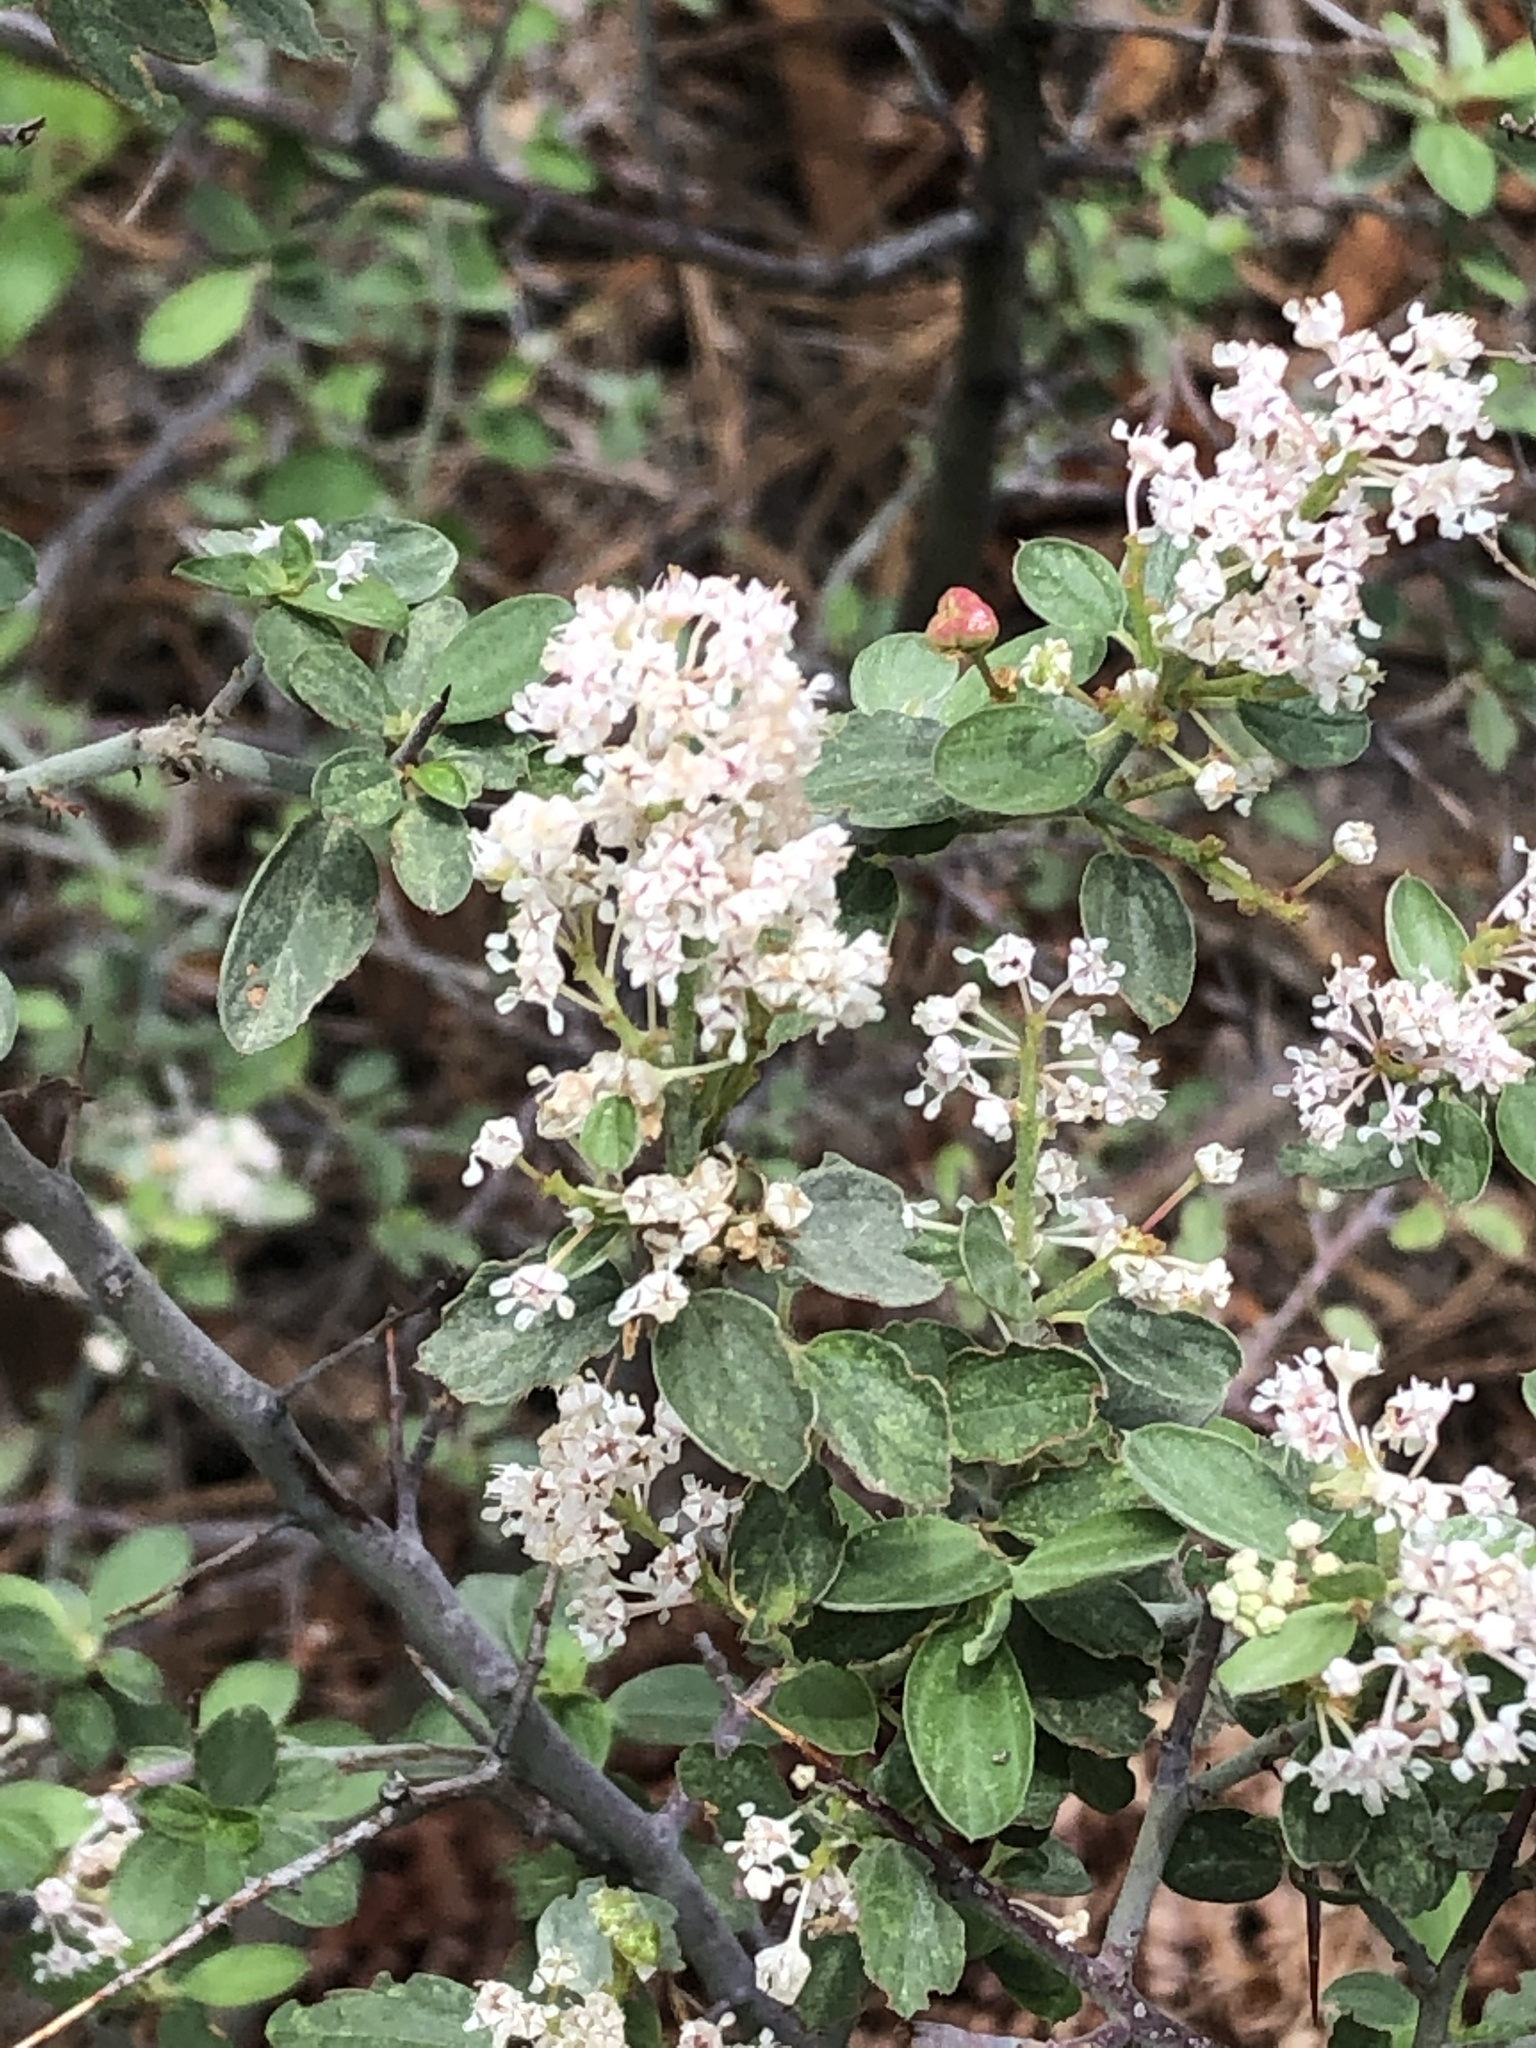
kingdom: Plantae
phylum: Tracheophyta
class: Magnoliopsida
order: Rosales
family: Rhamnaceae
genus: Ceanothus
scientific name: Ceanothus fendleri
